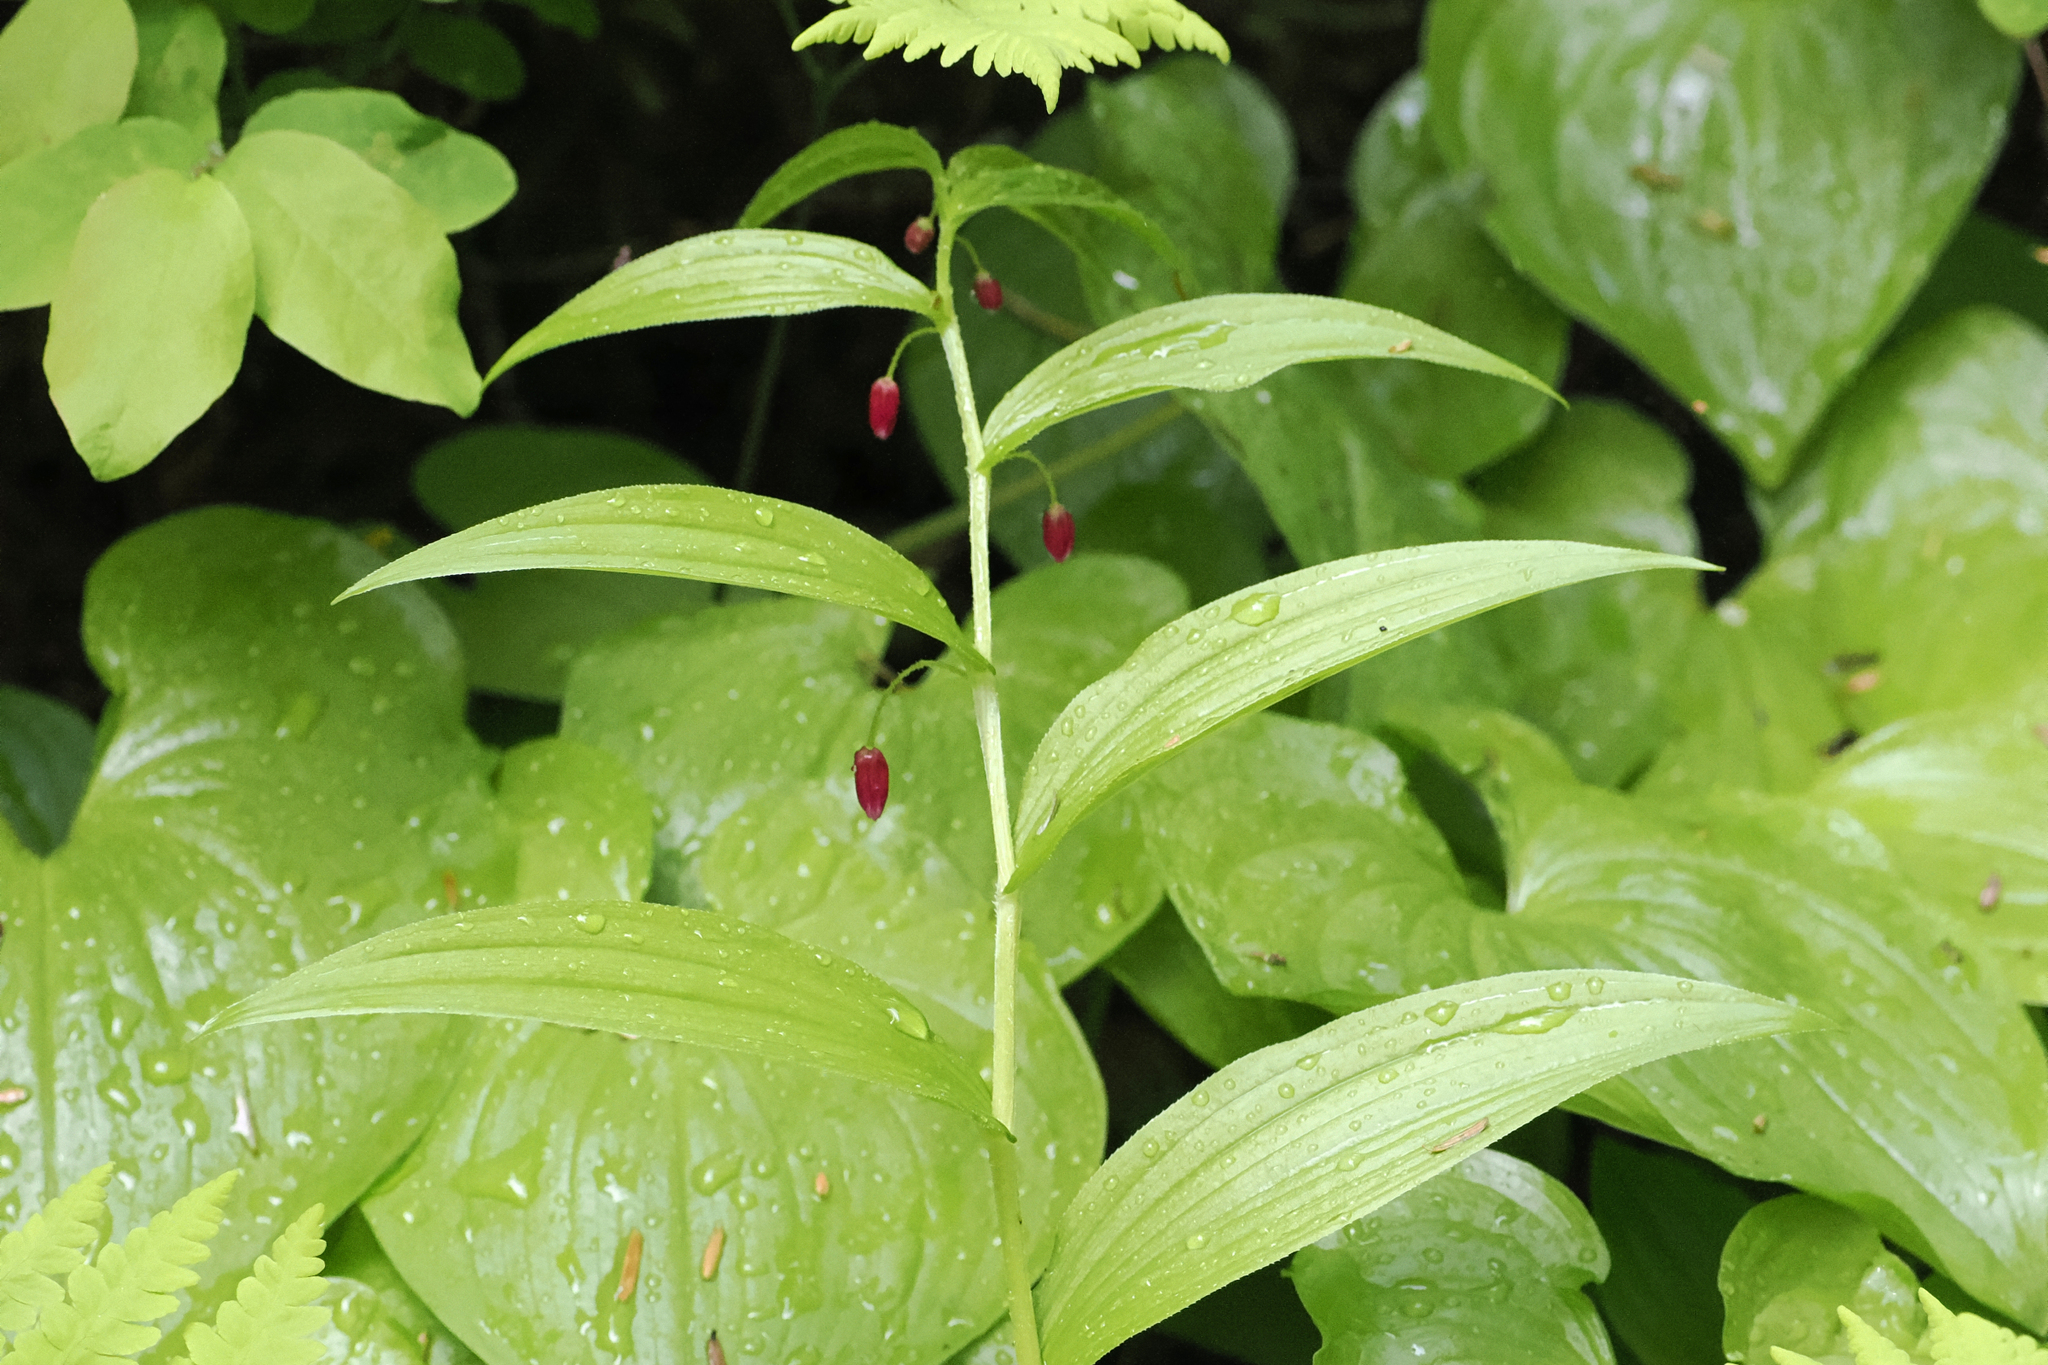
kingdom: Plantae
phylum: Tracheophyta
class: Liliopsida
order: Liliales
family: Liliaceae
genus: Streptopus
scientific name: Streptopus lanceolatus
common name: Rose mandarin
